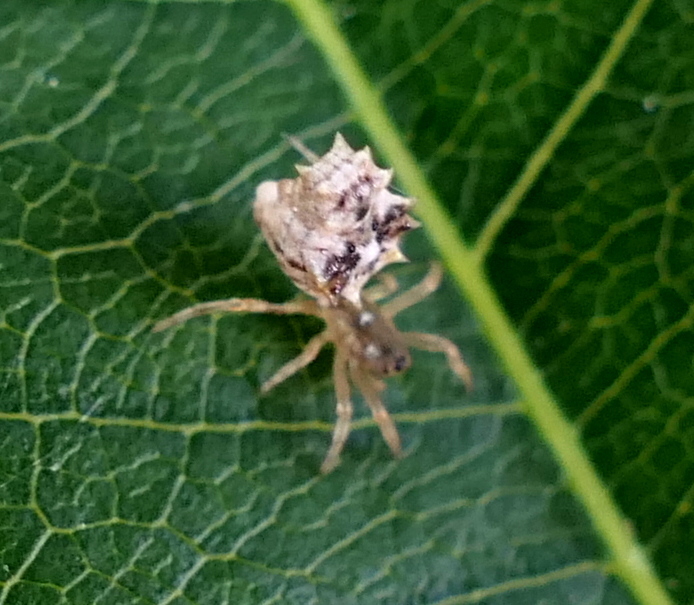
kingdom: Animalia
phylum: Arthropoda
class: Arachnida
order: Araneae
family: Araneidae
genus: Micrathena
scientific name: Micrathena horrida
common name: Orb weavers
